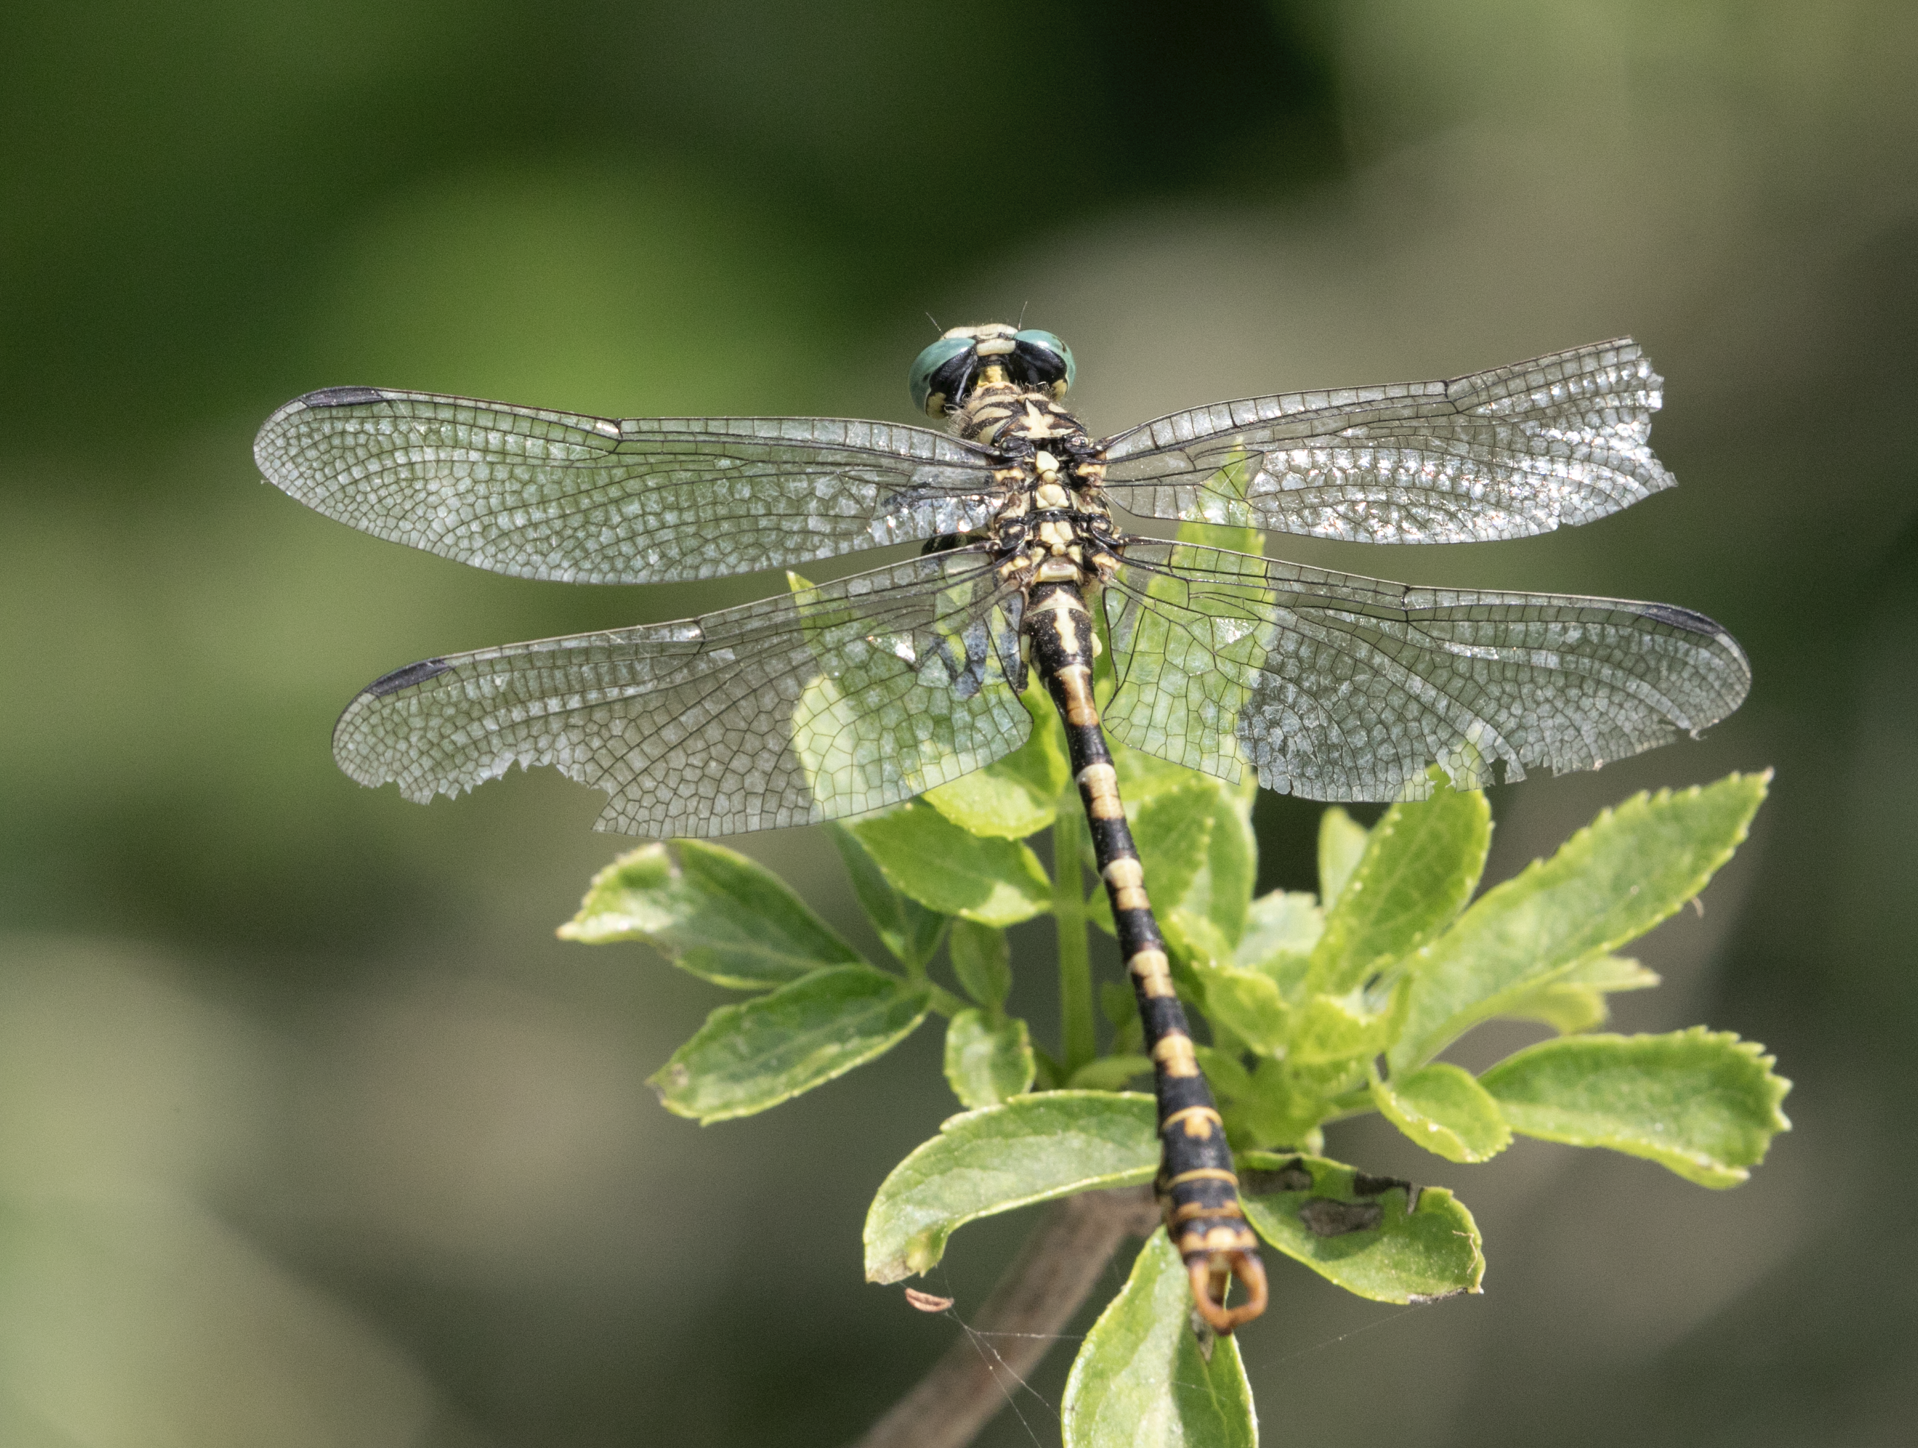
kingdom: Animalia
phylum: Arthropoda
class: Insecta
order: Odonata
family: Gomphidae
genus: Onychogomphus
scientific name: Onychogomphus forcipatus
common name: Small pincertail
